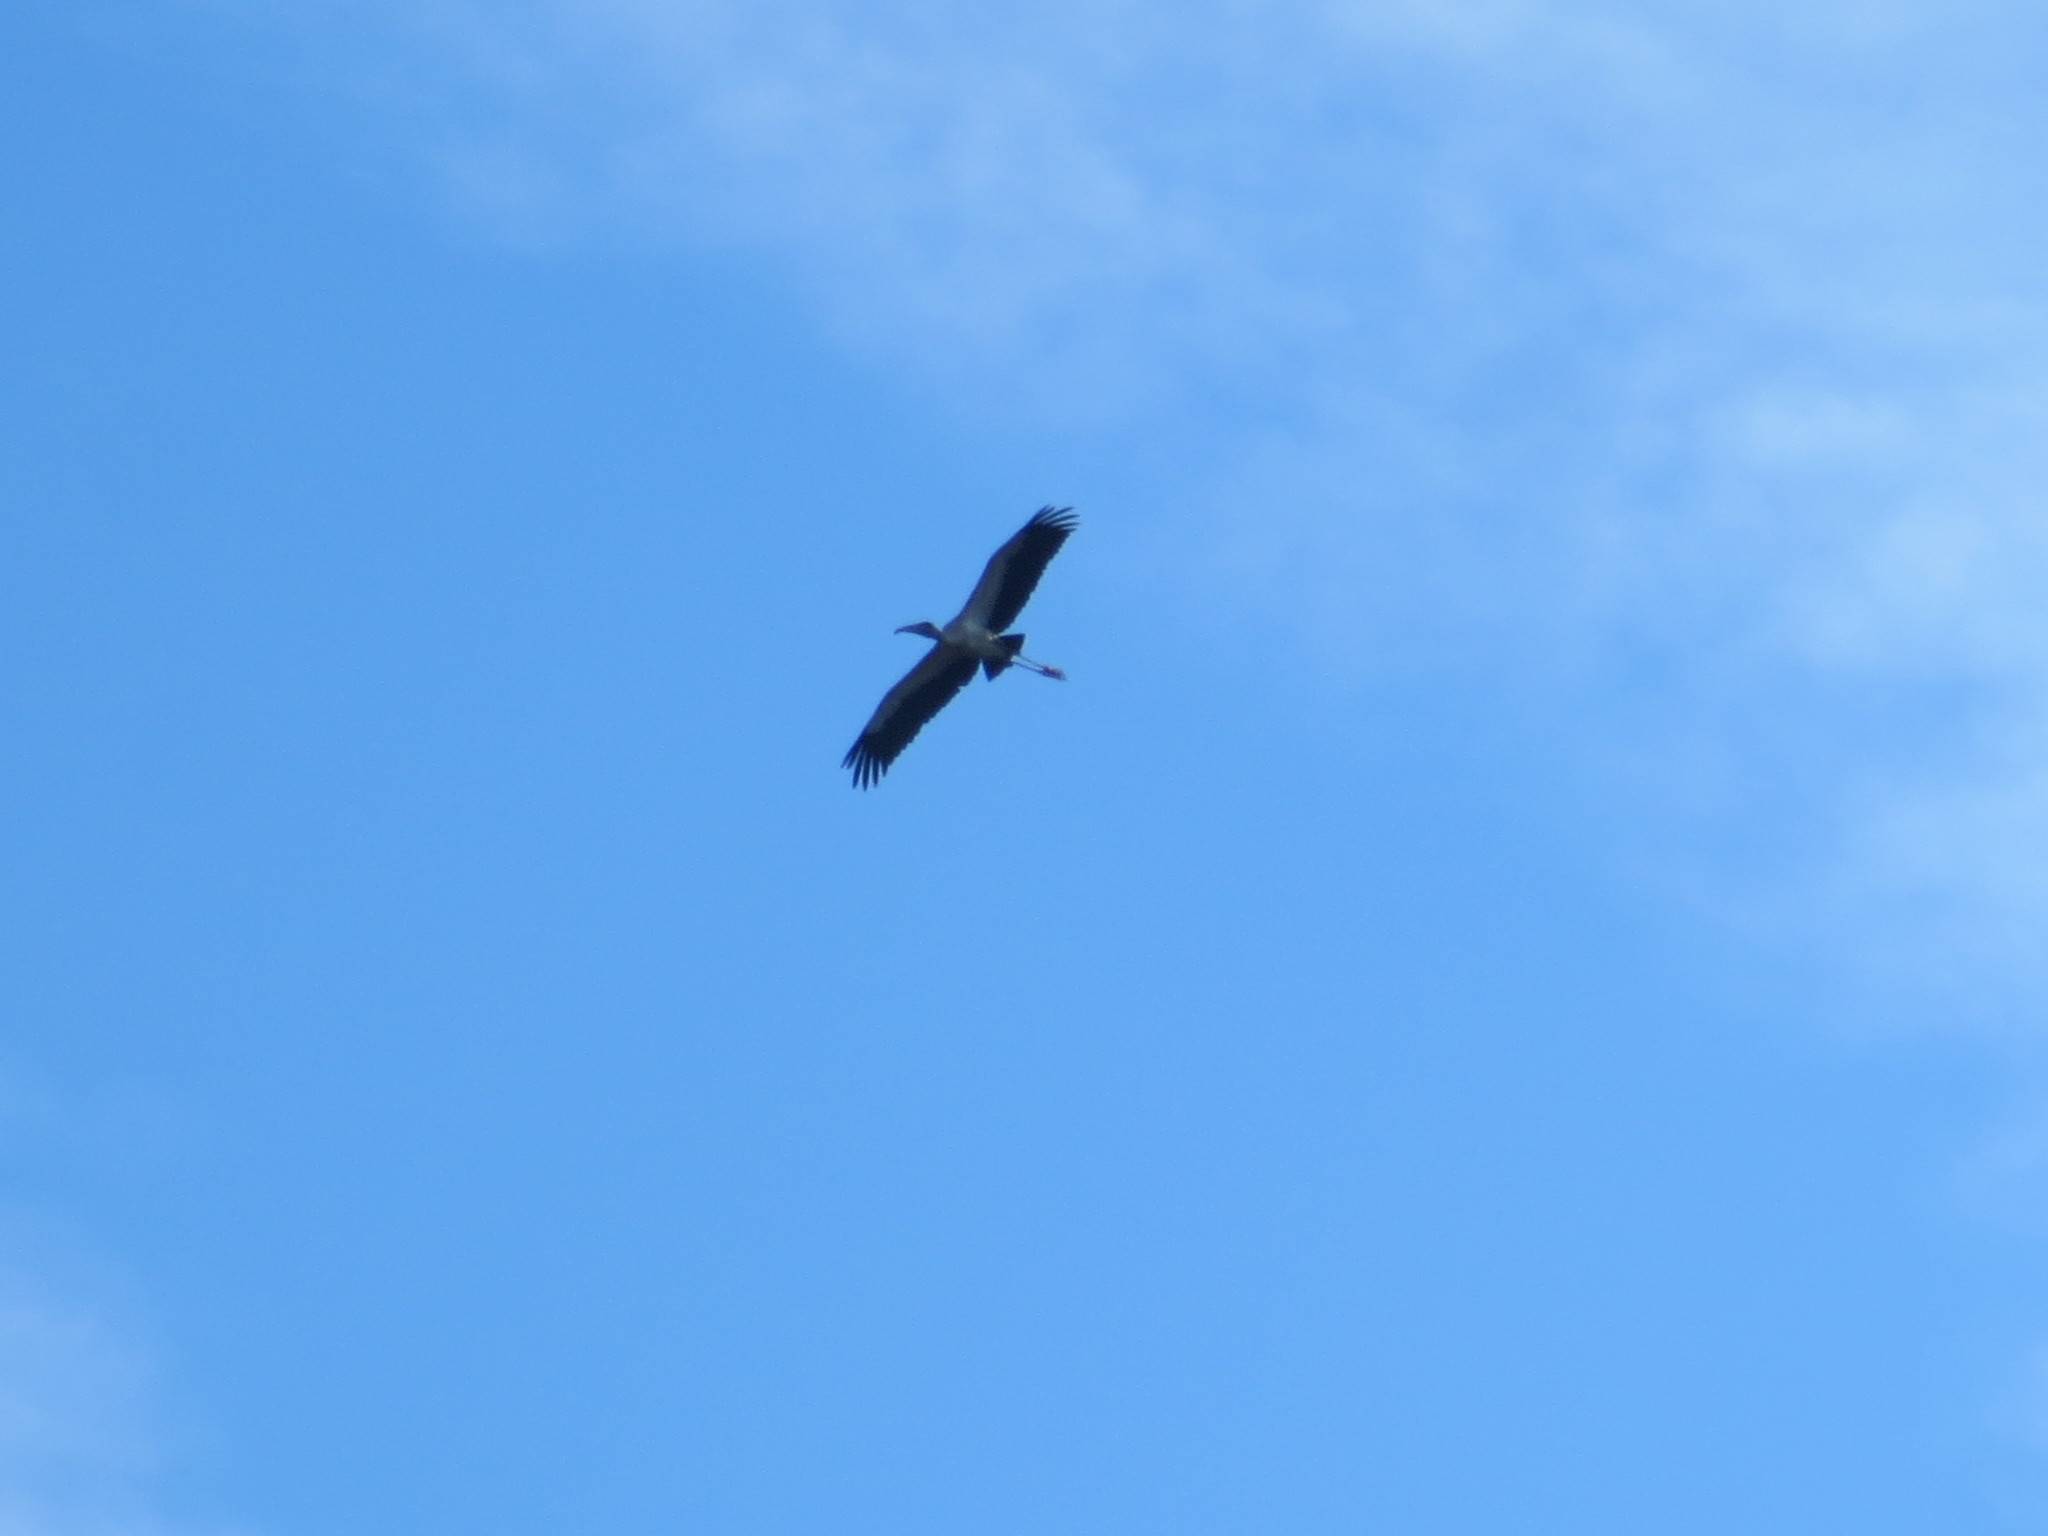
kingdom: Animalia
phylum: Chordata
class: Aves
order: Ciconiiformes
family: Ciconiidae
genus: Mycteria
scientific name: Mycteria americana
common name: Wood stork
